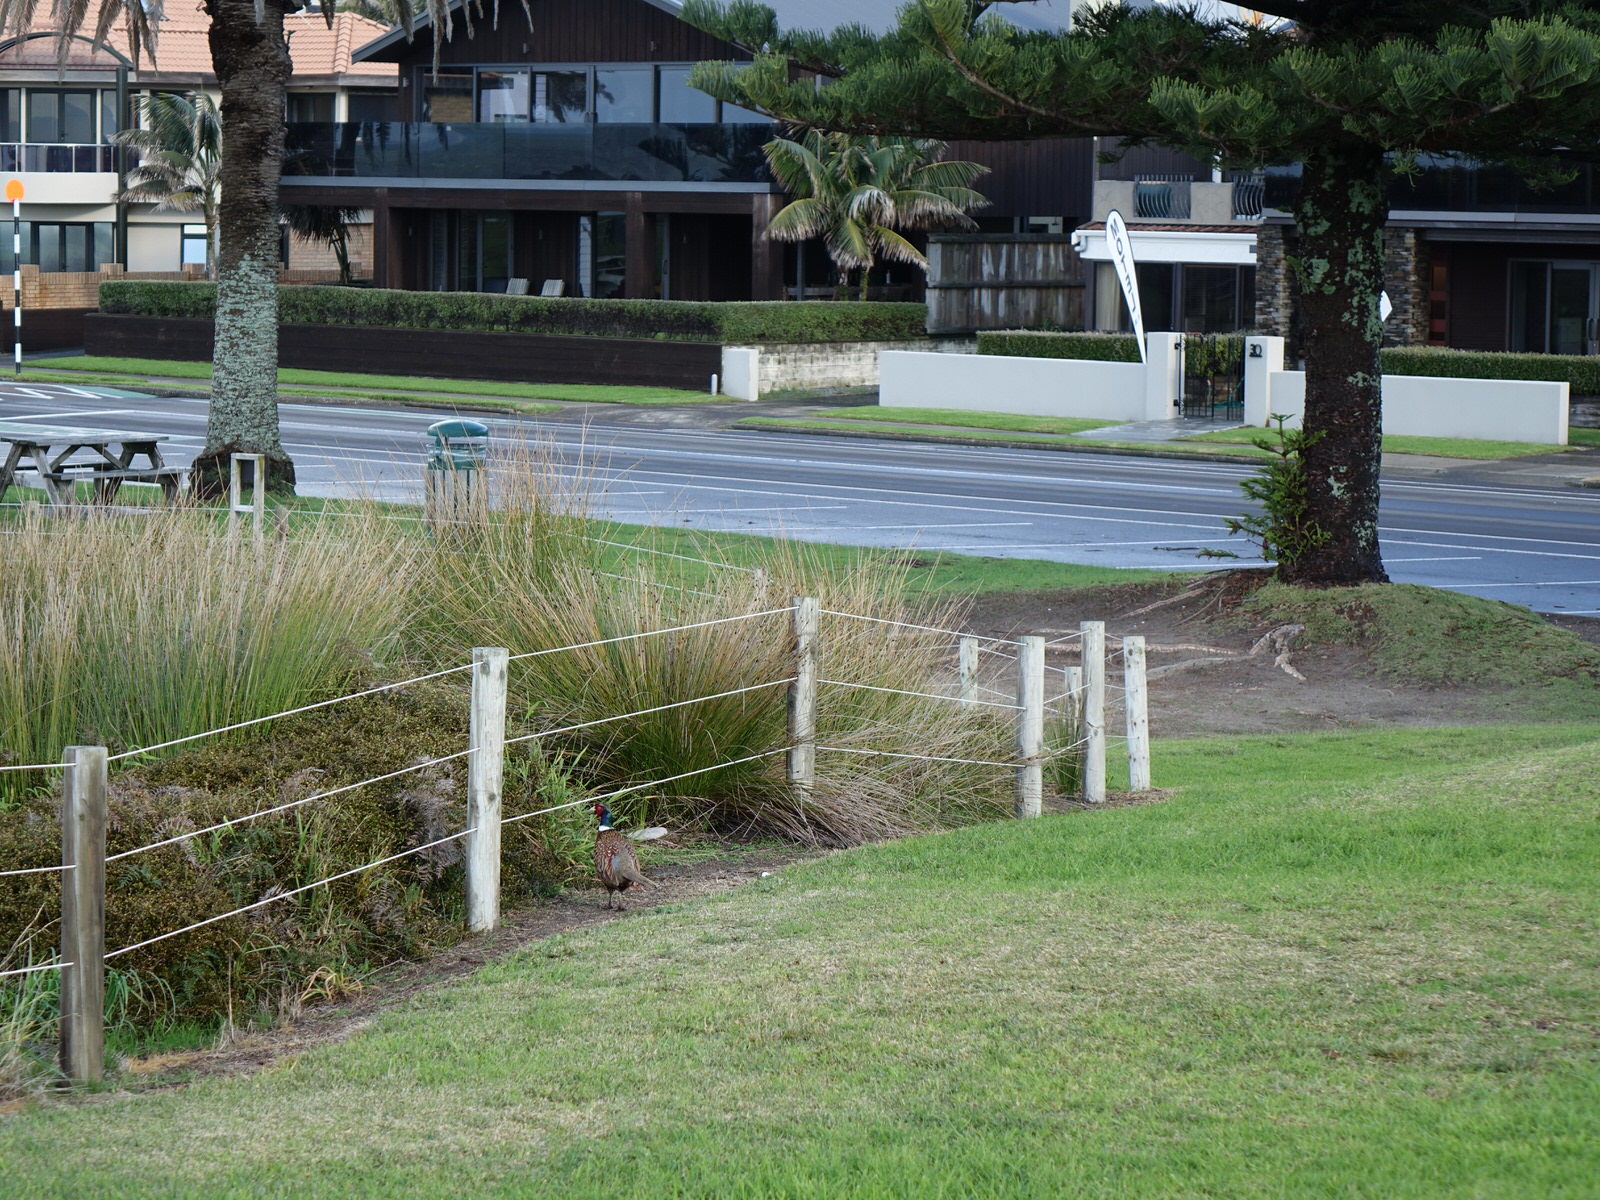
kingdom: Animalia
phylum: Chordata
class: Aves
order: Galliformes
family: Phasianidae
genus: Phasianus
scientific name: Phasianus colchicus
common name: Common pheasant
